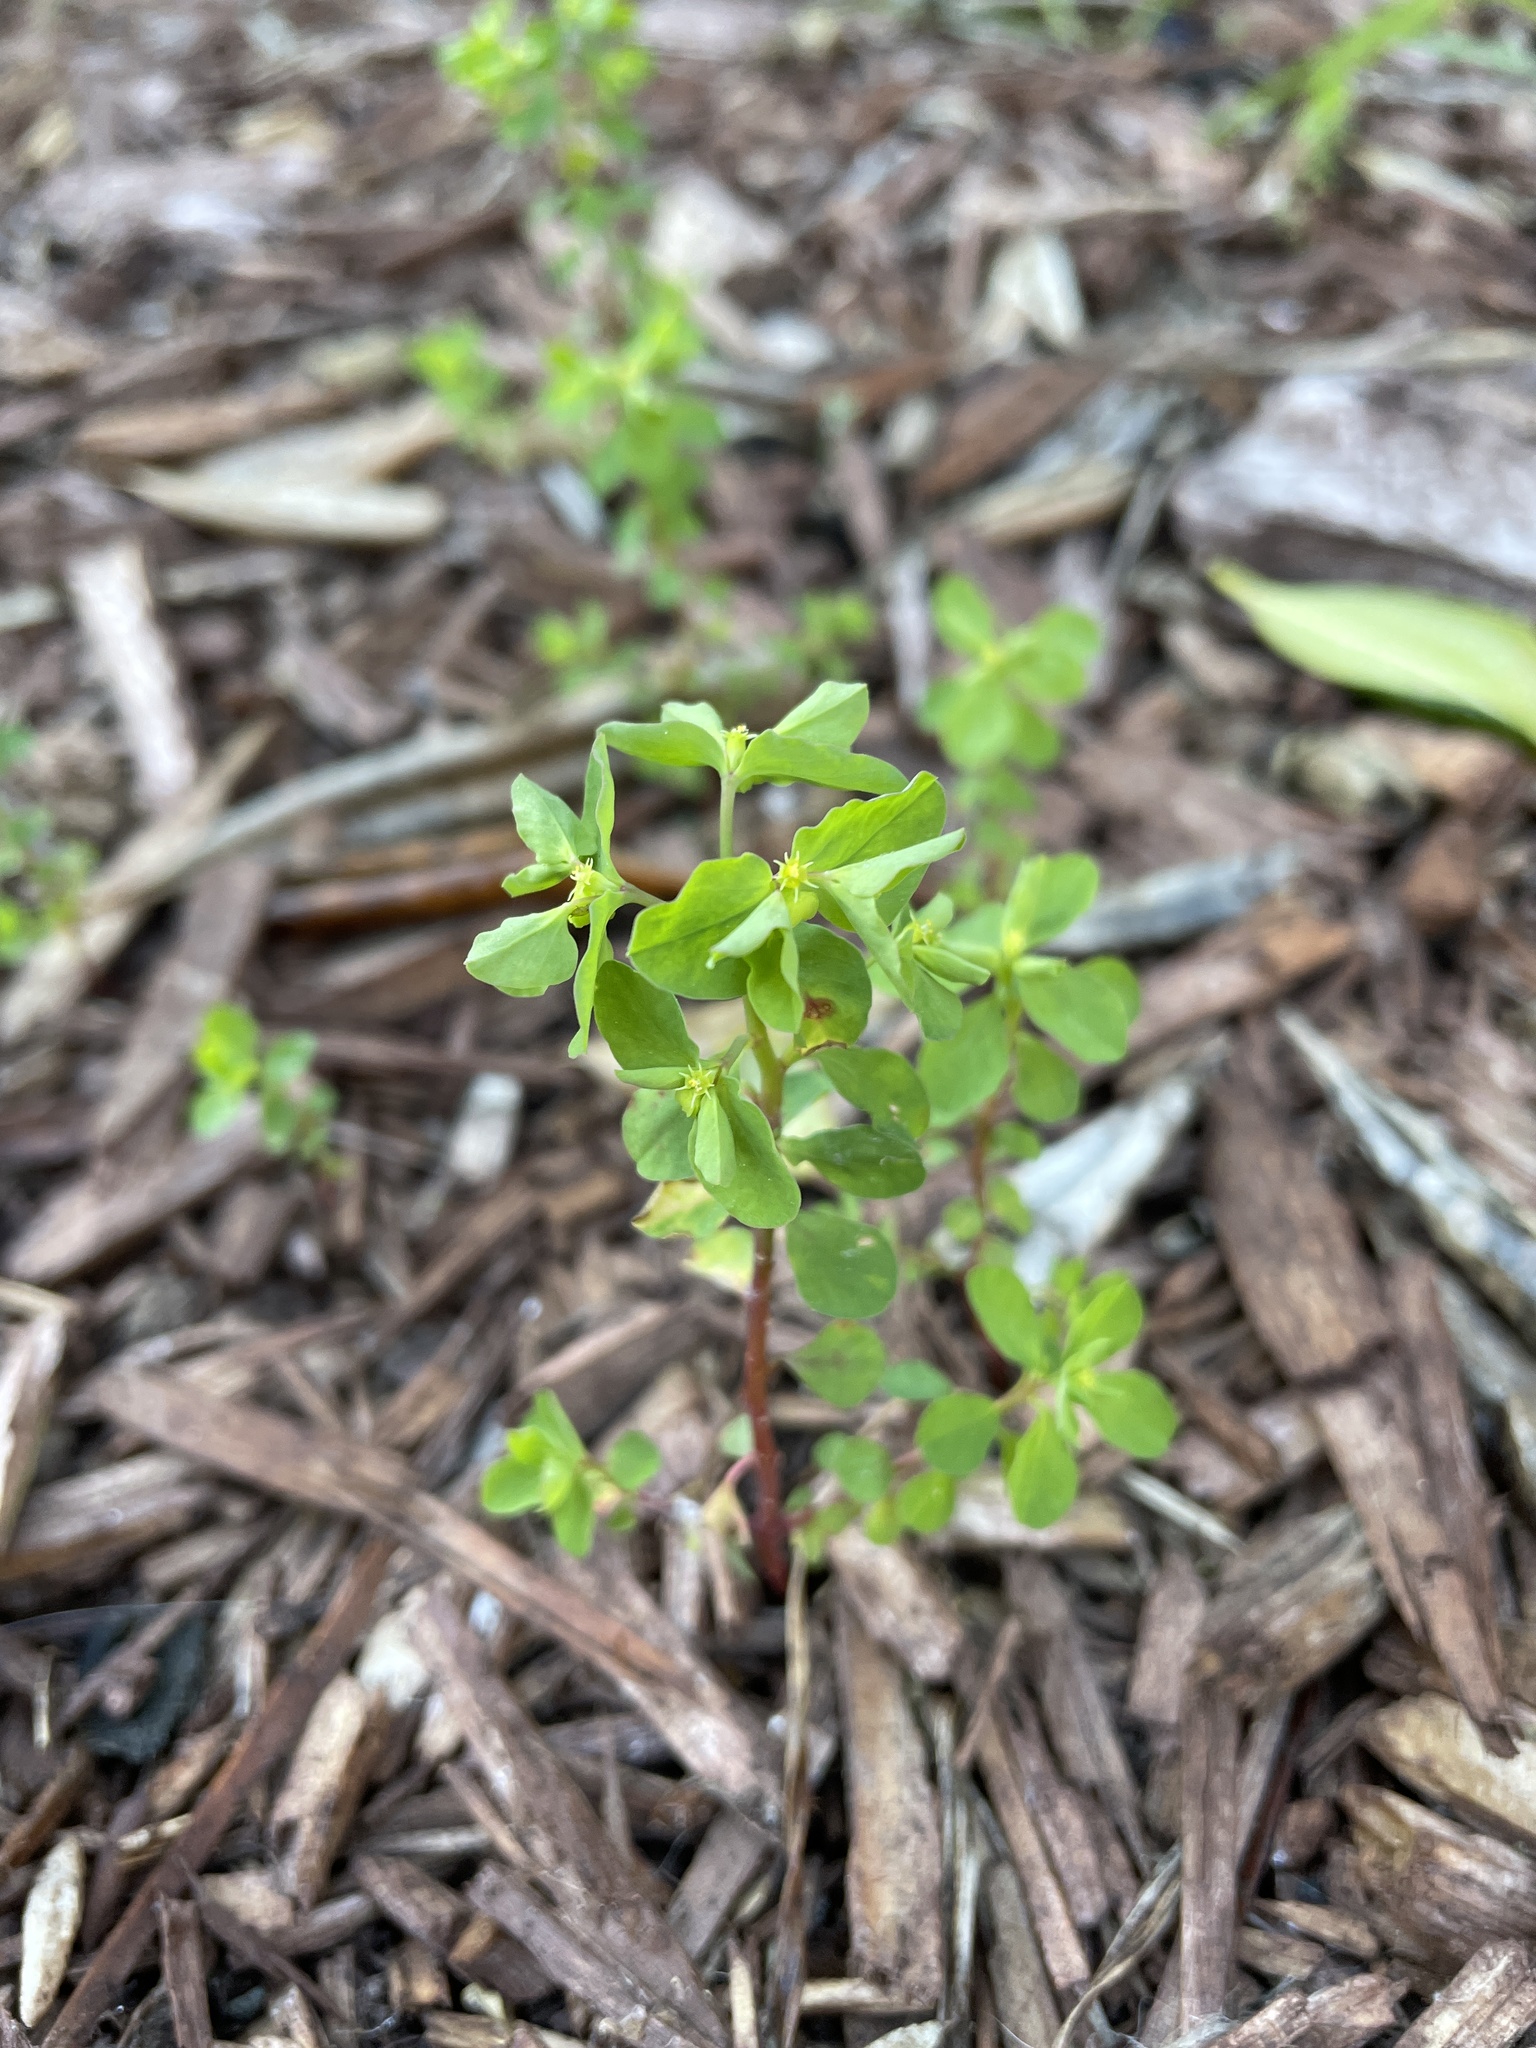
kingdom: Plantae
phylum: Tracheophyta
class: Magnoliopsida
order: Malpighiales
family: Euphorbiaceae
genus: Euphorbia
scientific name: Euphorbia peplus
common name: Petty spurge
